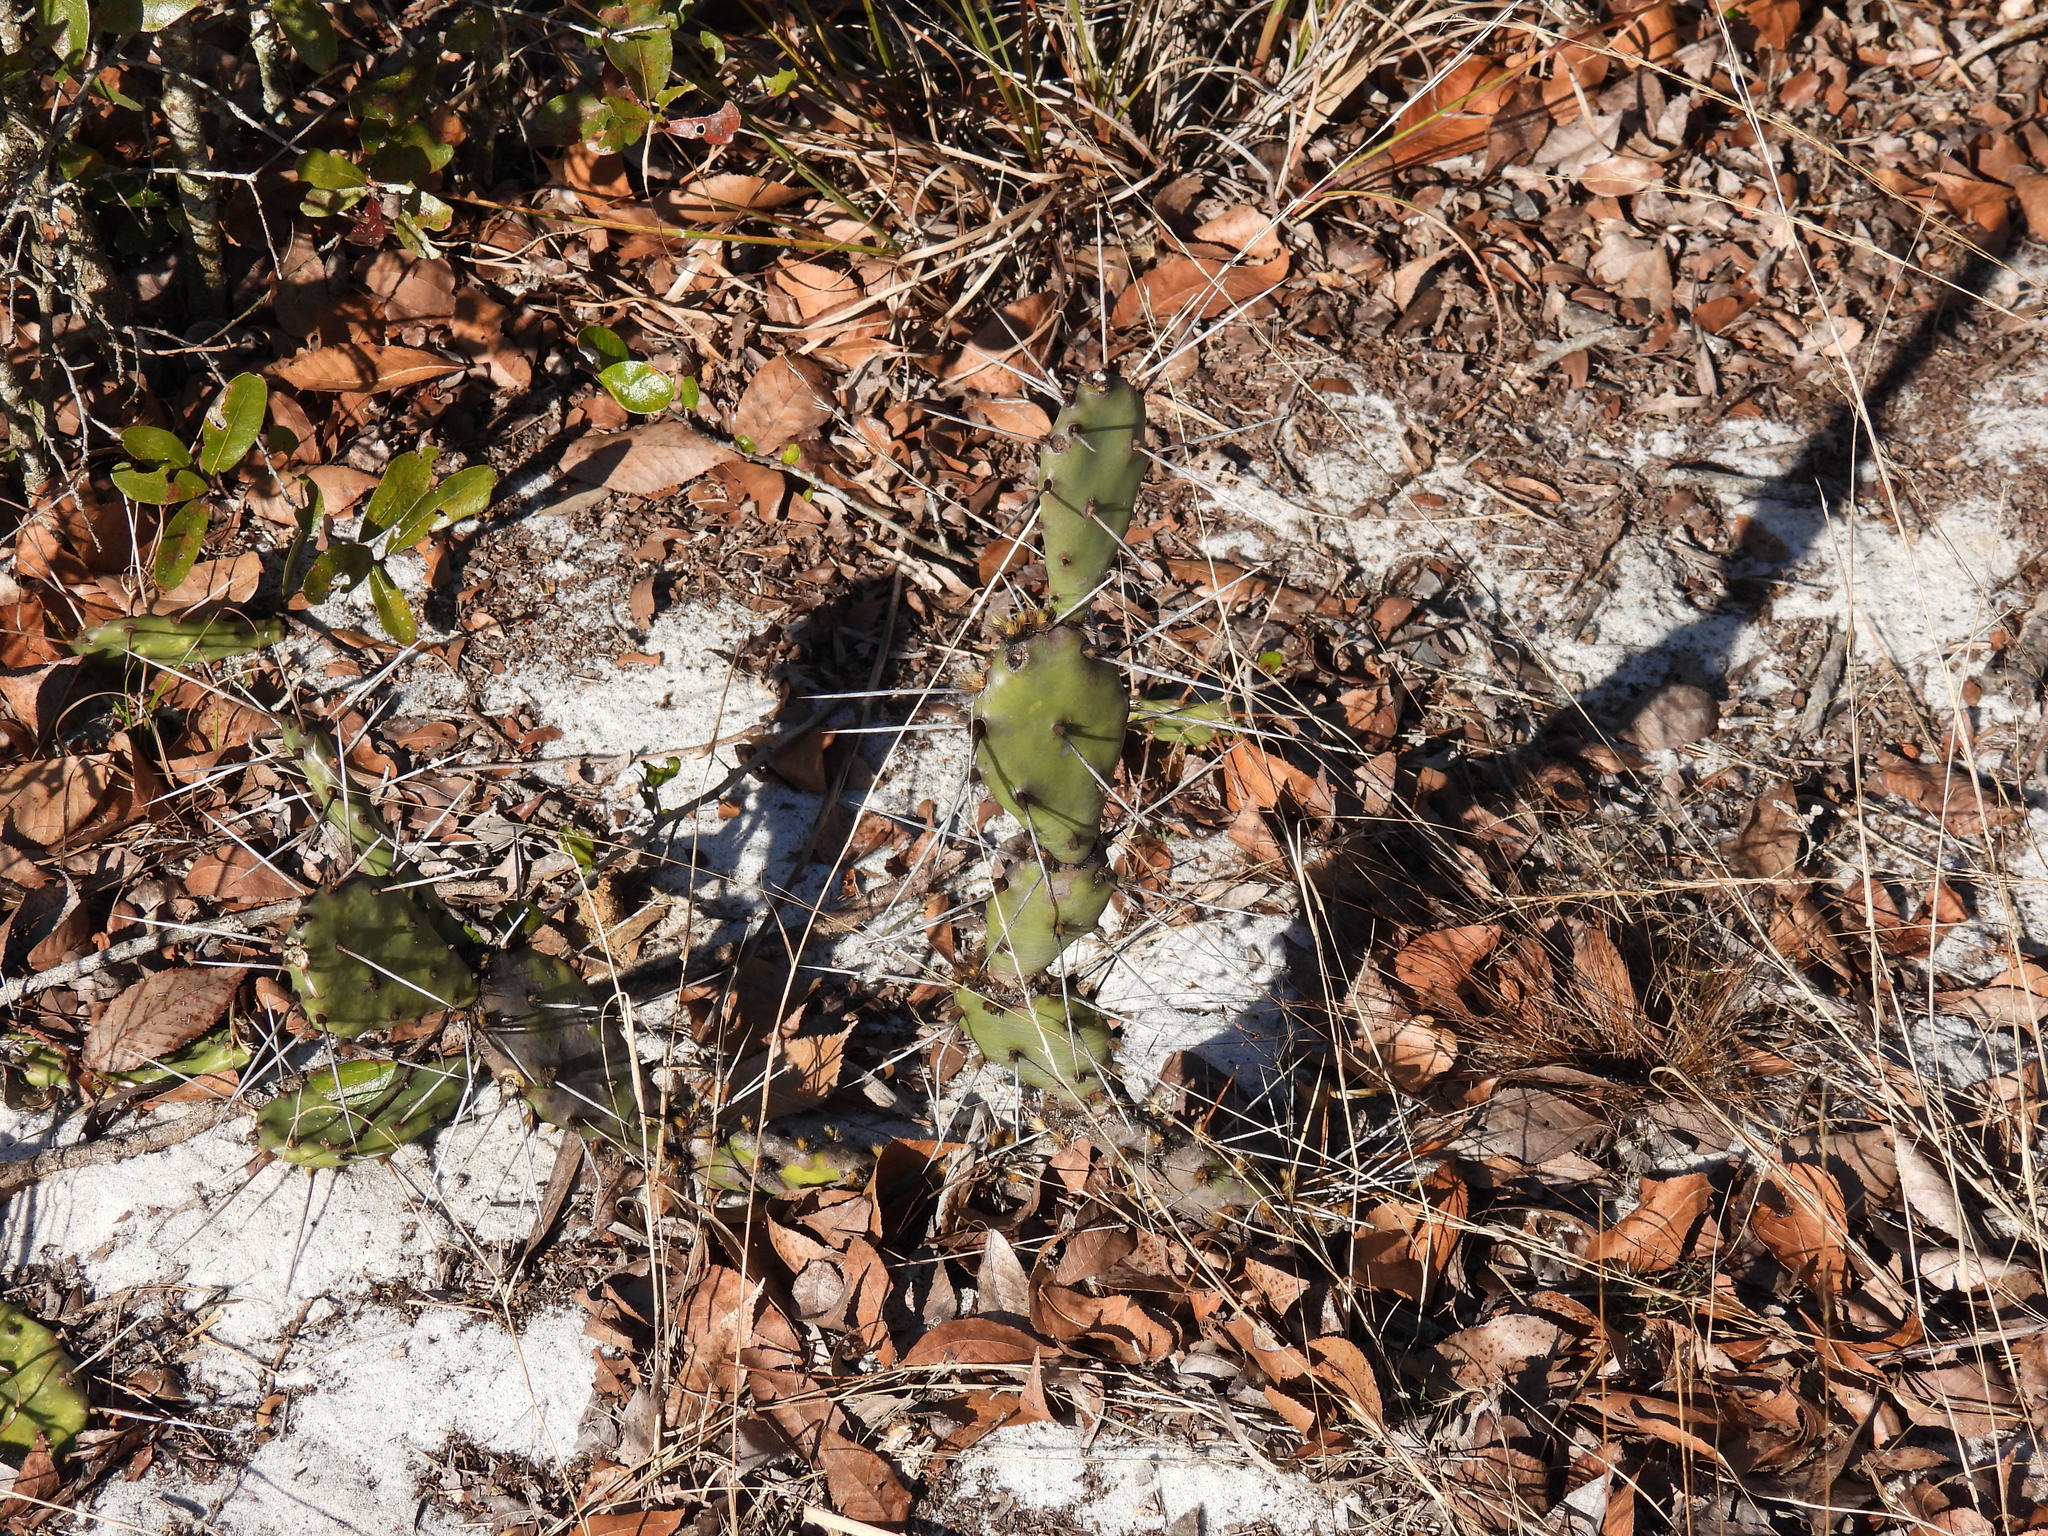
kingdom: Plantae
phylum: Tracheophyta
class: Magnoliopsida
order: Caryophyllales
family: Cactaceae
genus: Opuntia
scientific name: Opuntia austrina
